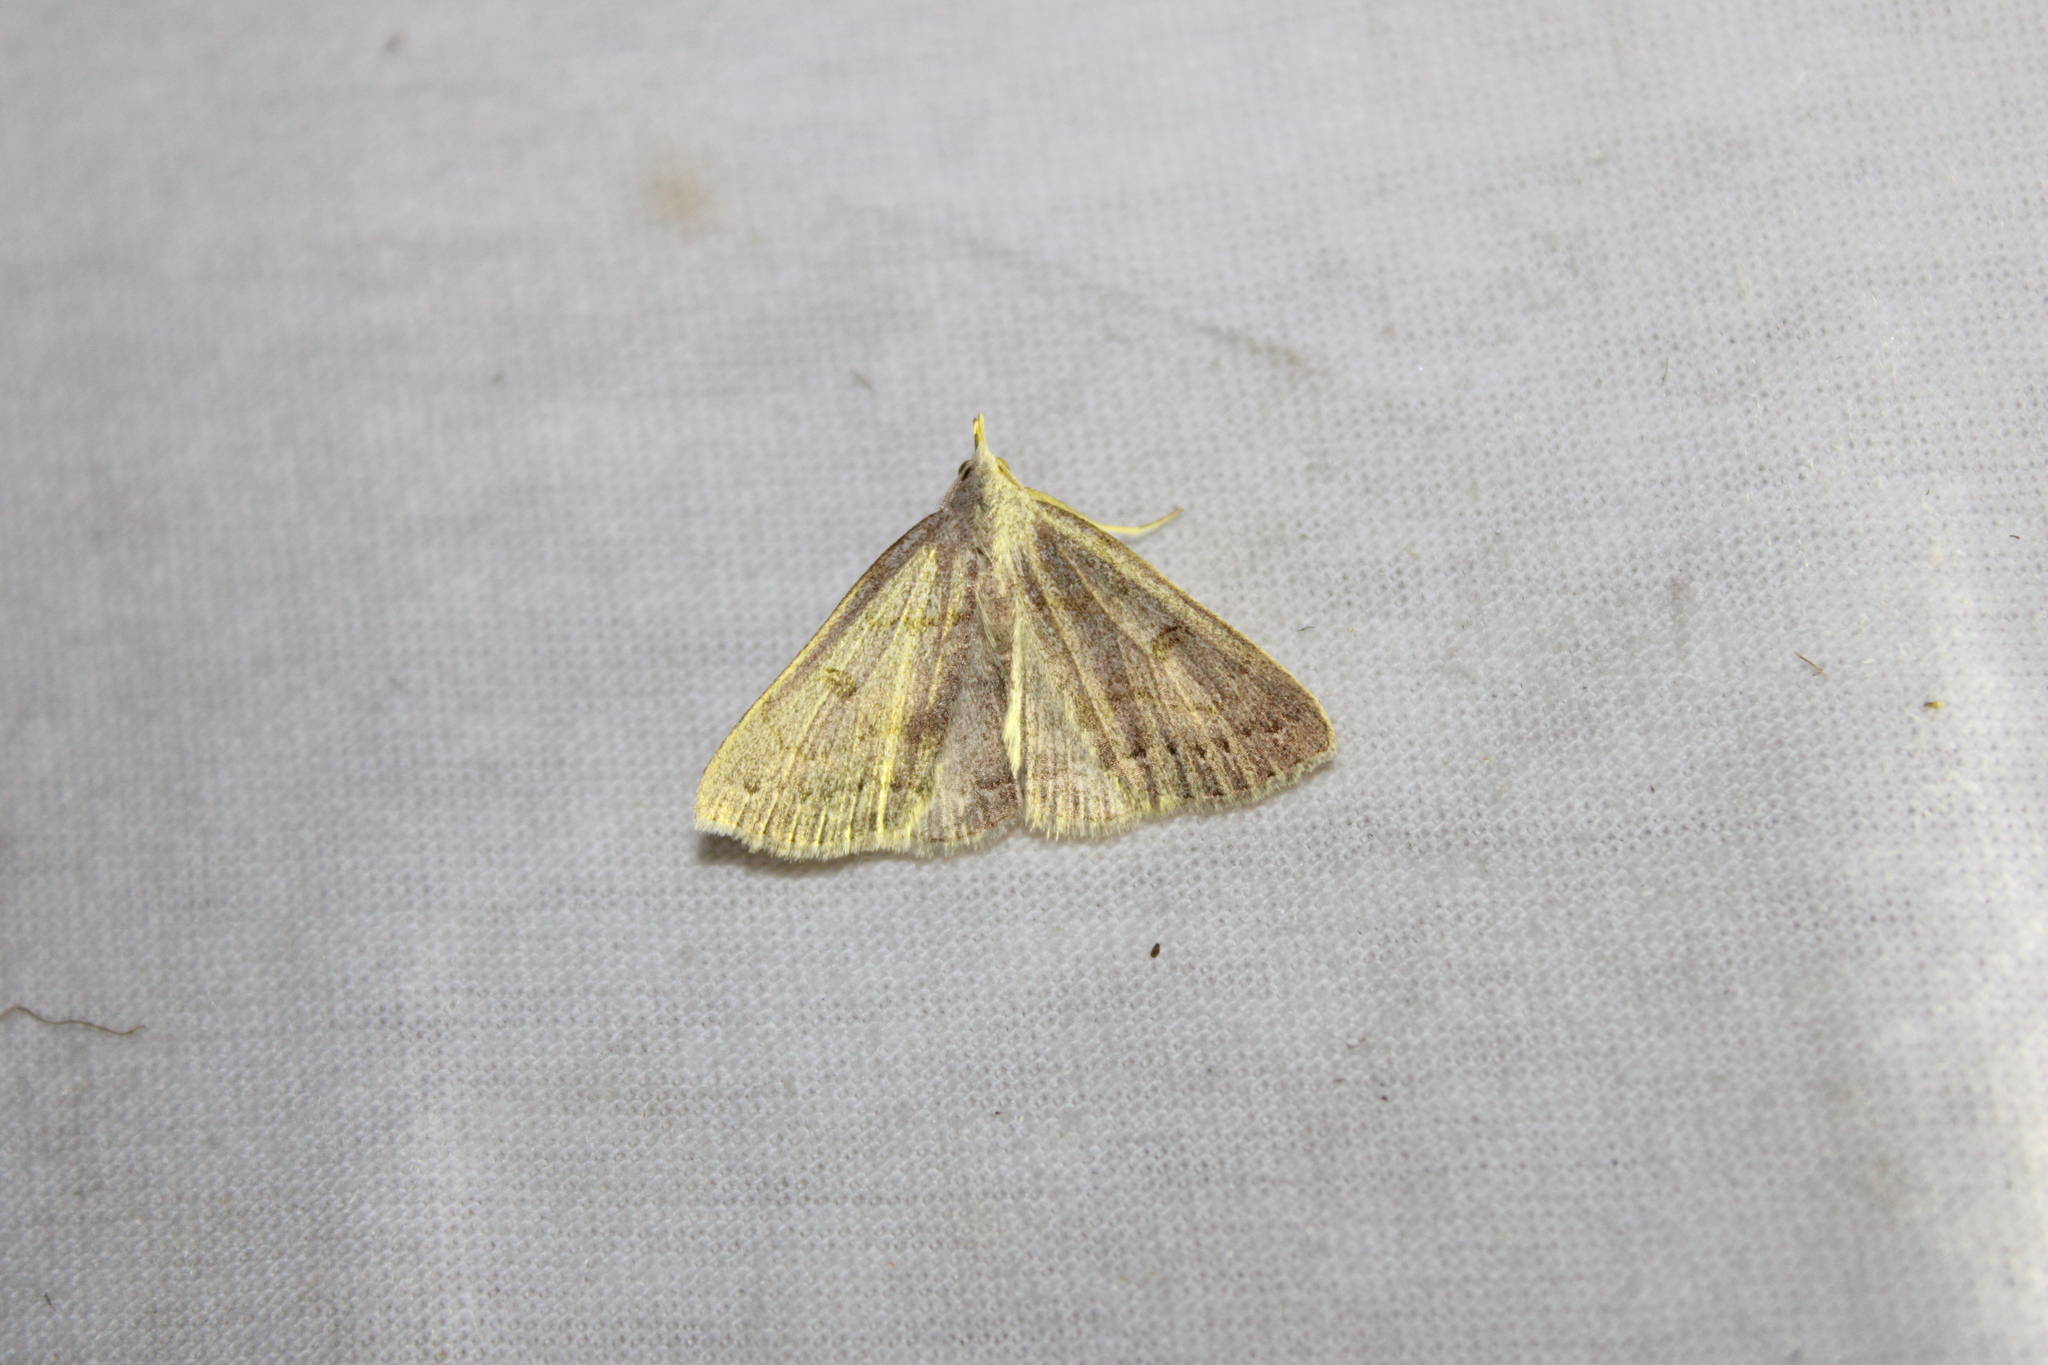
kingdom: Animalia
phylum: Arthropoda
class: Insecta
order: Lepidoptera
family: Erebidae
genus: Macrochilo
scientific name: Macrochilo morbidalis
